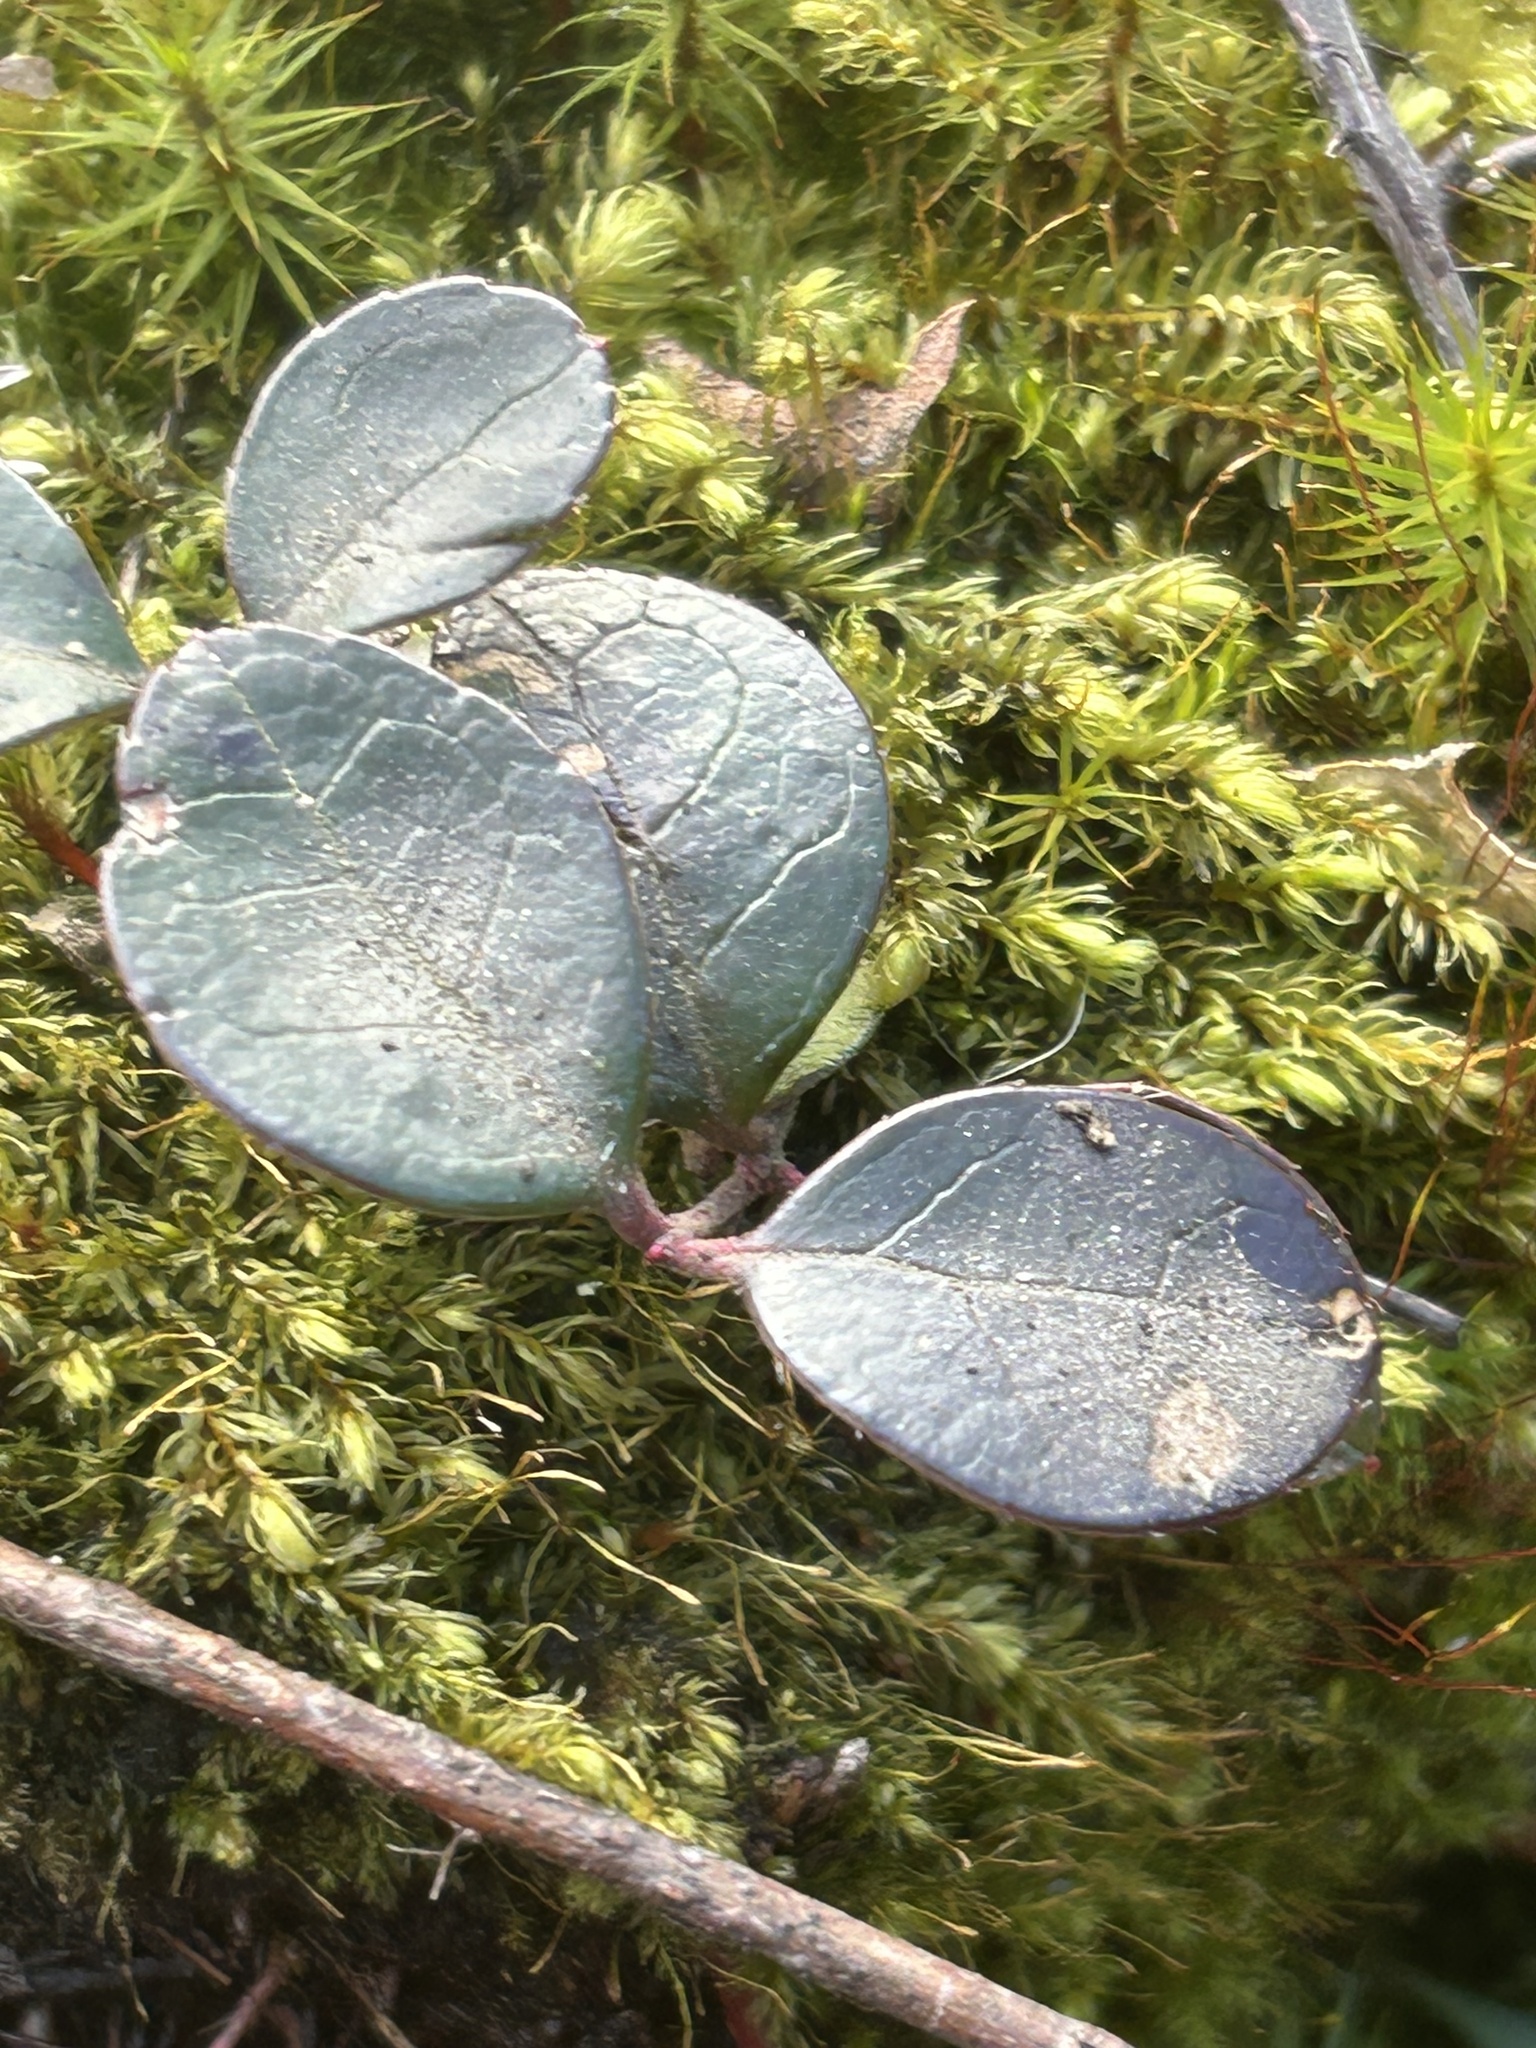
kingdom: Plantae
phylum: Tracheophyta
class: Magnoliopsida
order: Ericales
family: Ericaceae
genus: Gaultheria
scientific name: Gaultheria procumbens
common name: Checkerberry
